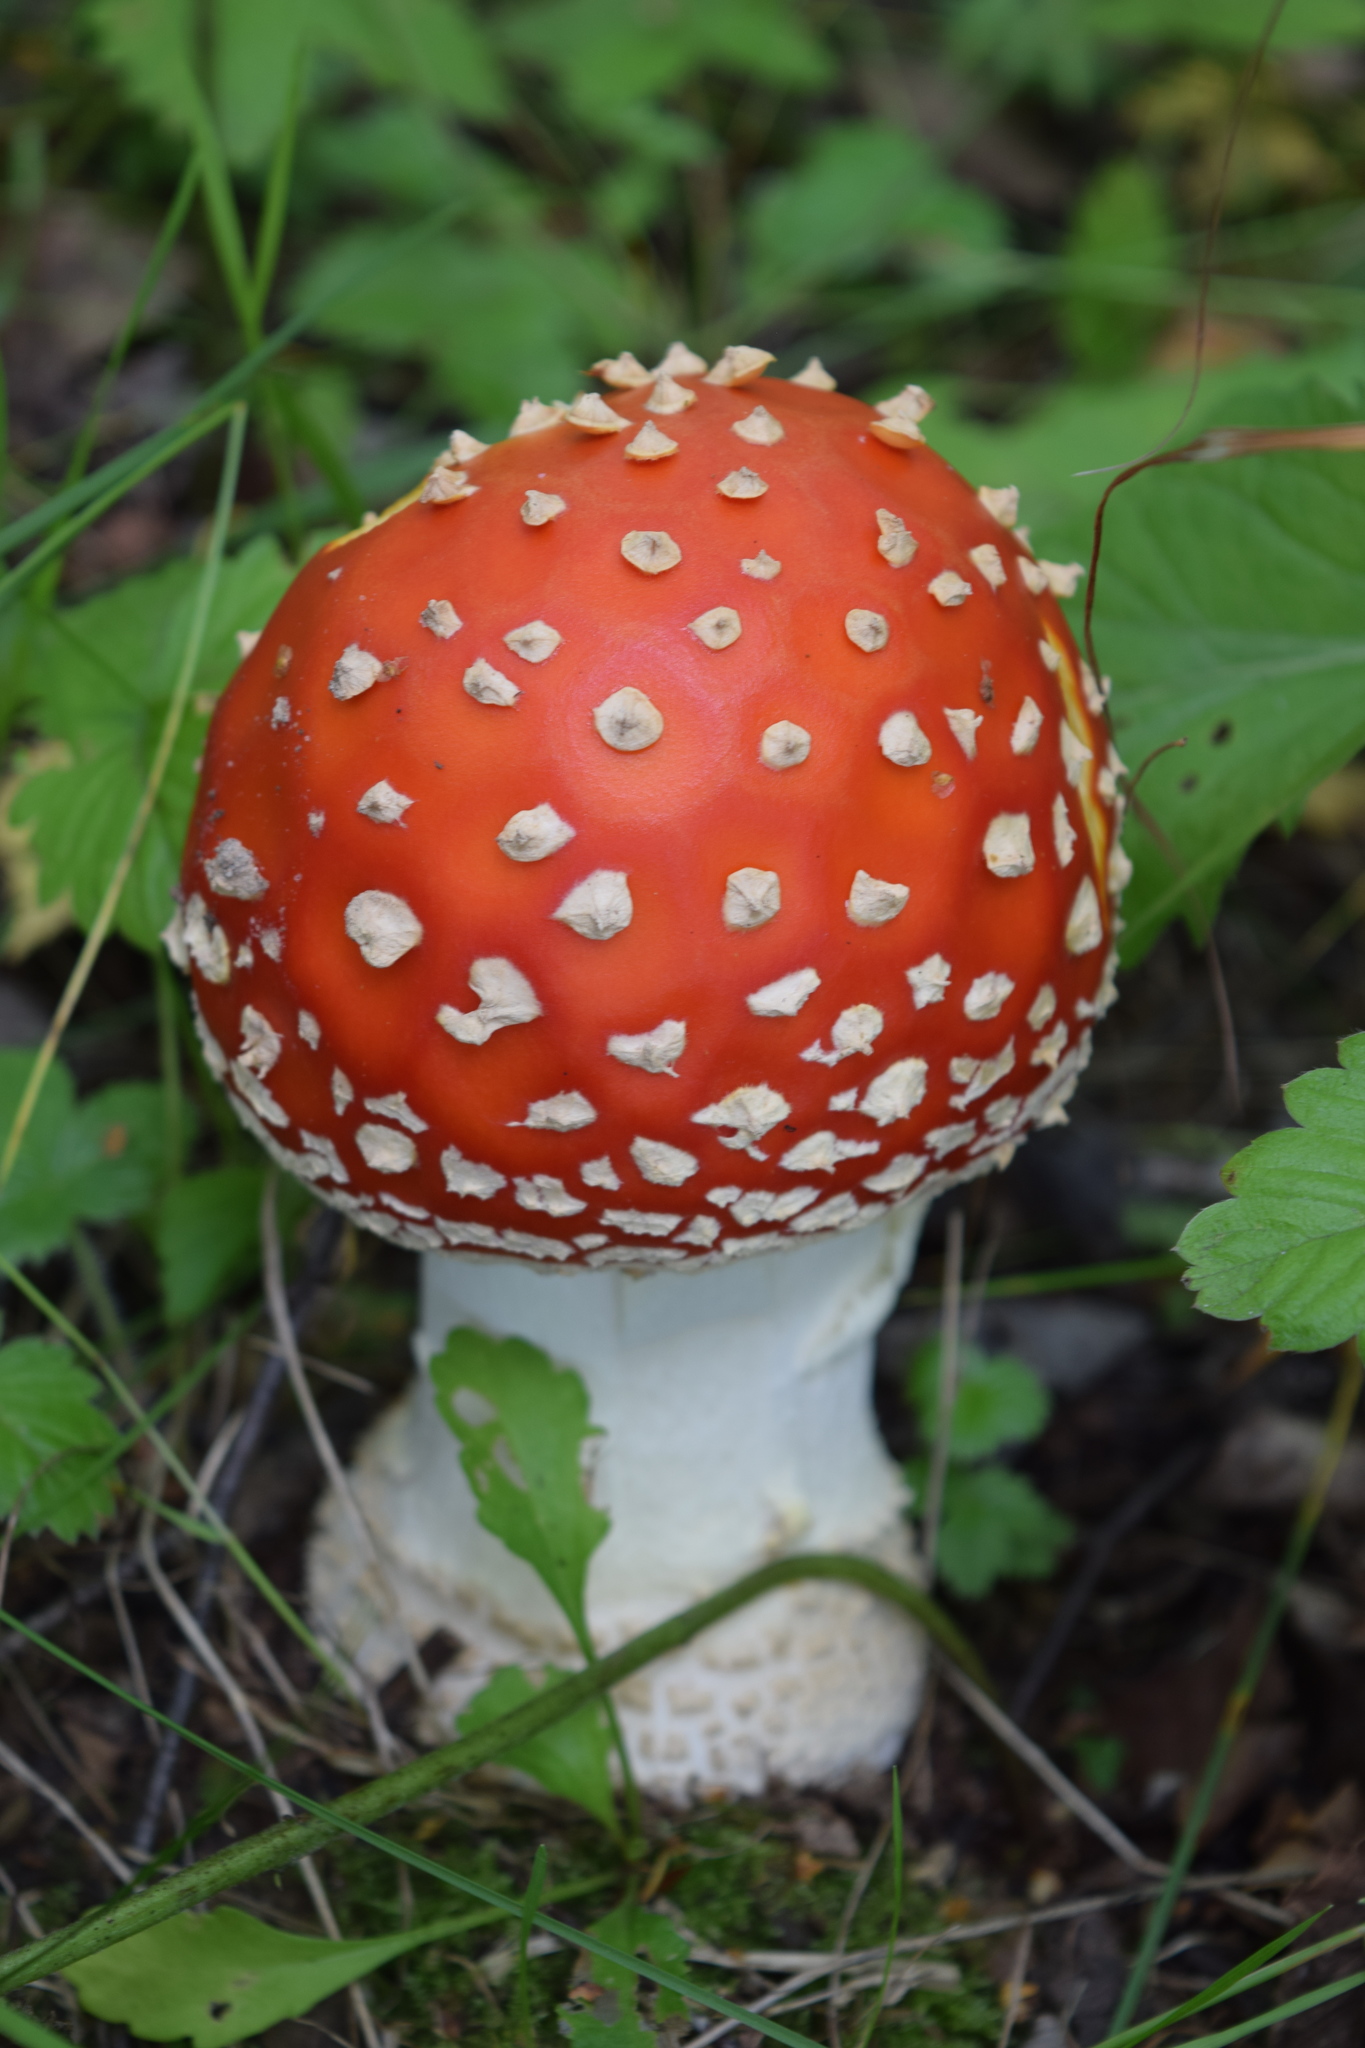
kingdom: Fungi
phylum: Basidiomycota
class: Agaricomycetes
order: Agaricales
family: Amanitaceae
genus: Amanita
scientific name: Amanita muscaria
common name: Fly agaric
